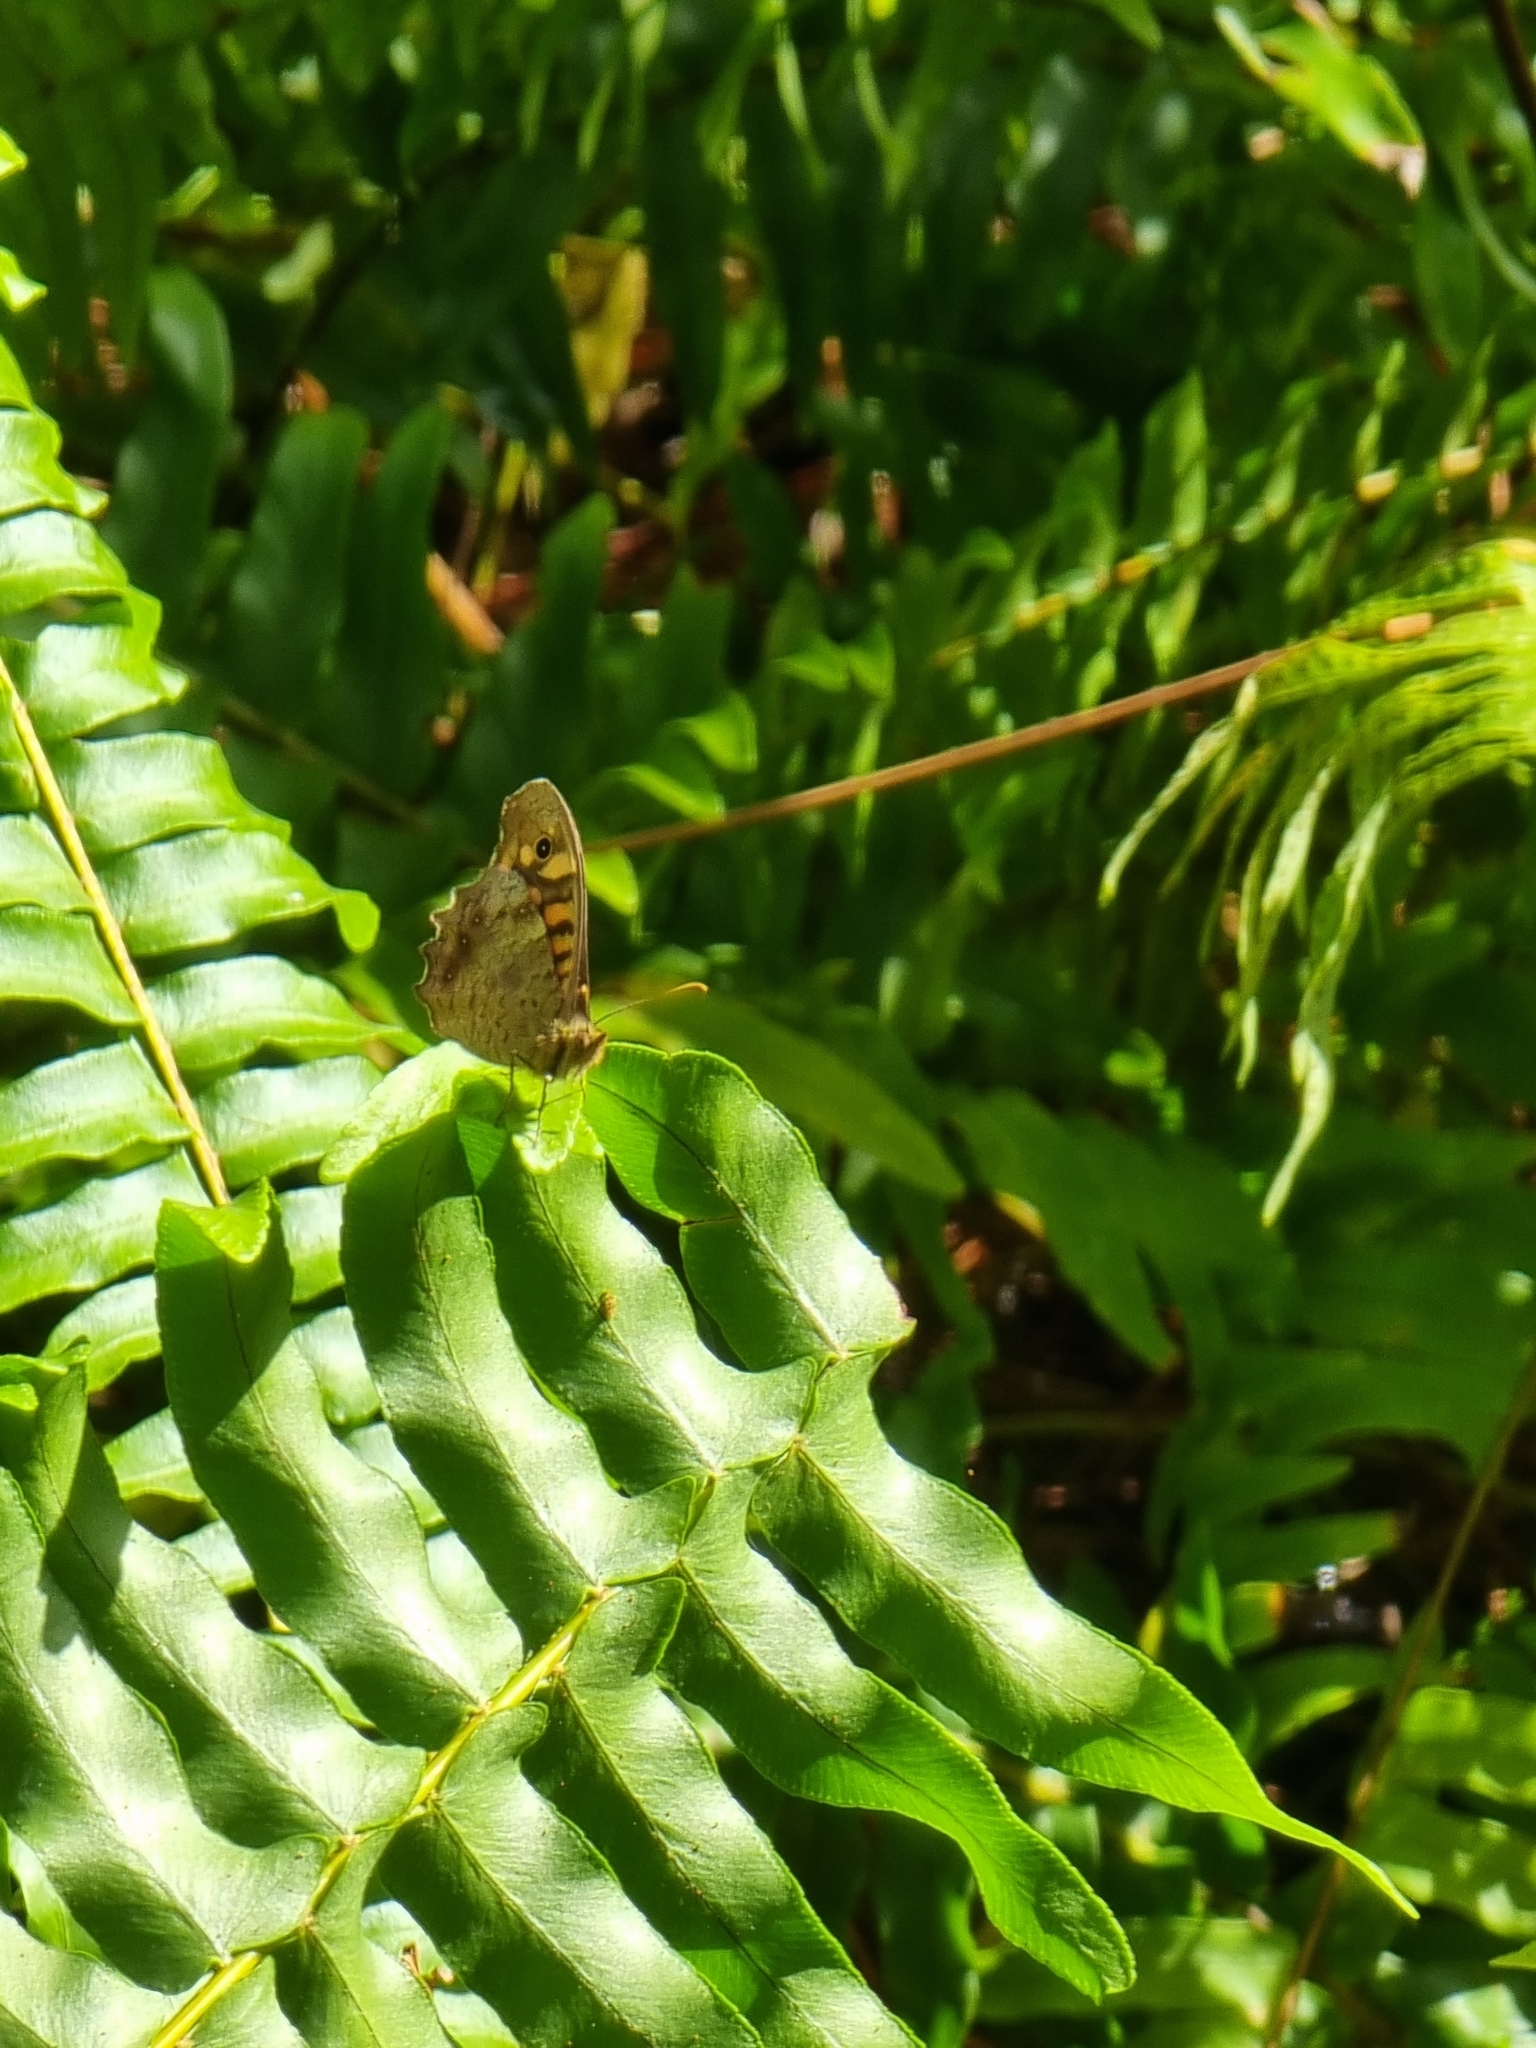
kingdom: Animalia
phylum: Arthropoda
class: Insecta
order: Lepidoptera
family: Nymphalidae
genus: Pararge
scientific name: Pararge aegeria
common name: Speckled wood
